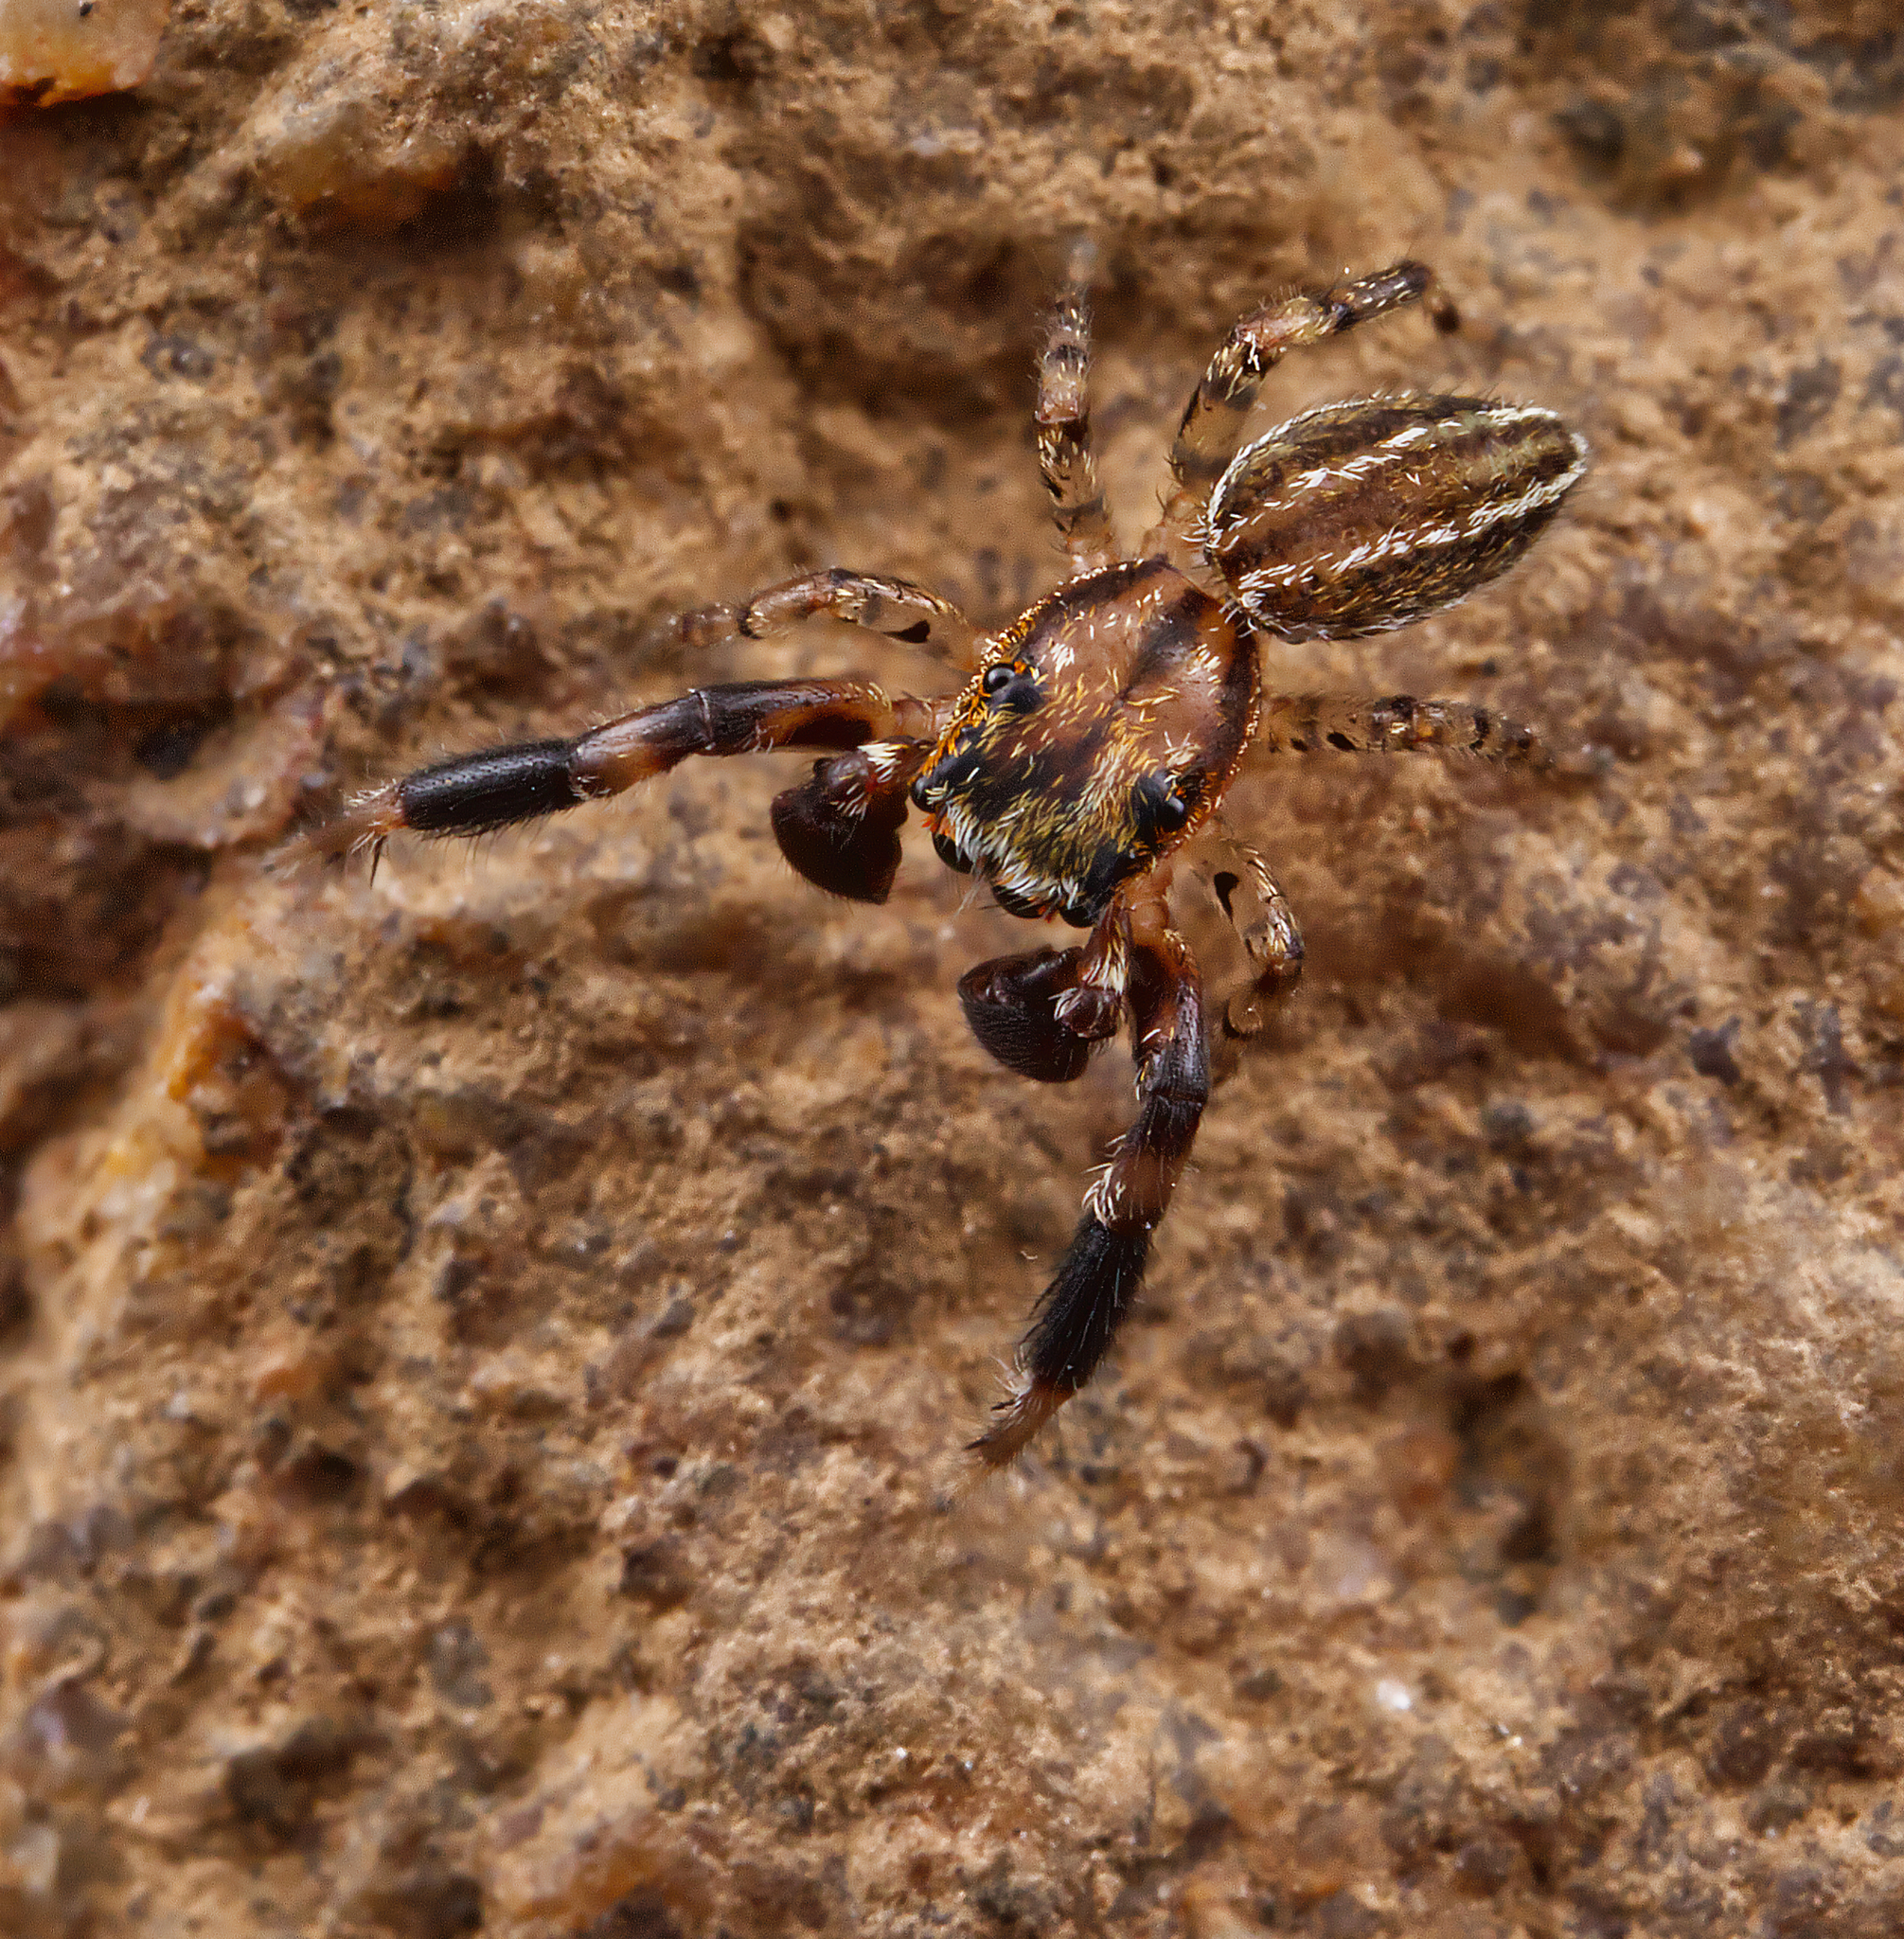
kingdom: Animalia
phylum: Arthropoda
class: Arachnida
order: Araneae
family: Salticidae
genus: Marpissa
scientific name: Marpissa lineata
